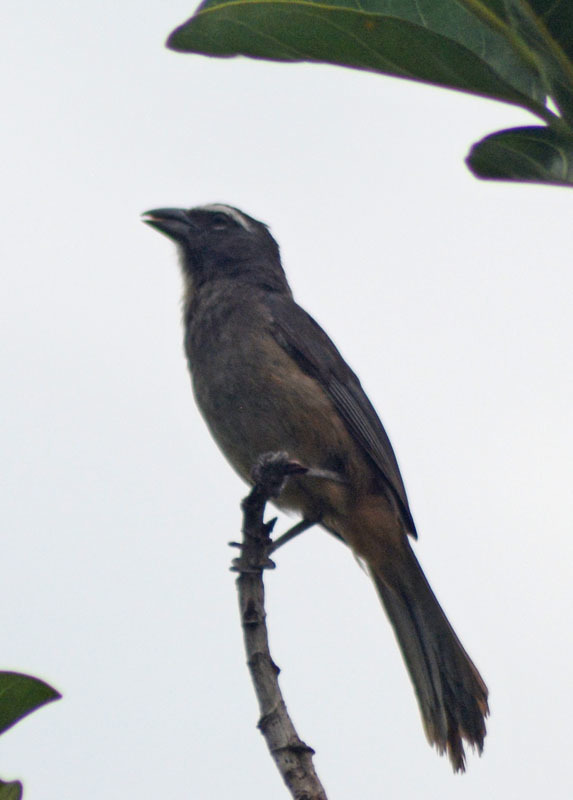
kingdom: Animalia
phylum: Chordata
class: Aves
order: Passeriformes
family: Thraupidae
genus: Saltator
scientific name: Saltator grandis
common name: Cinnamon-bellied saltator
